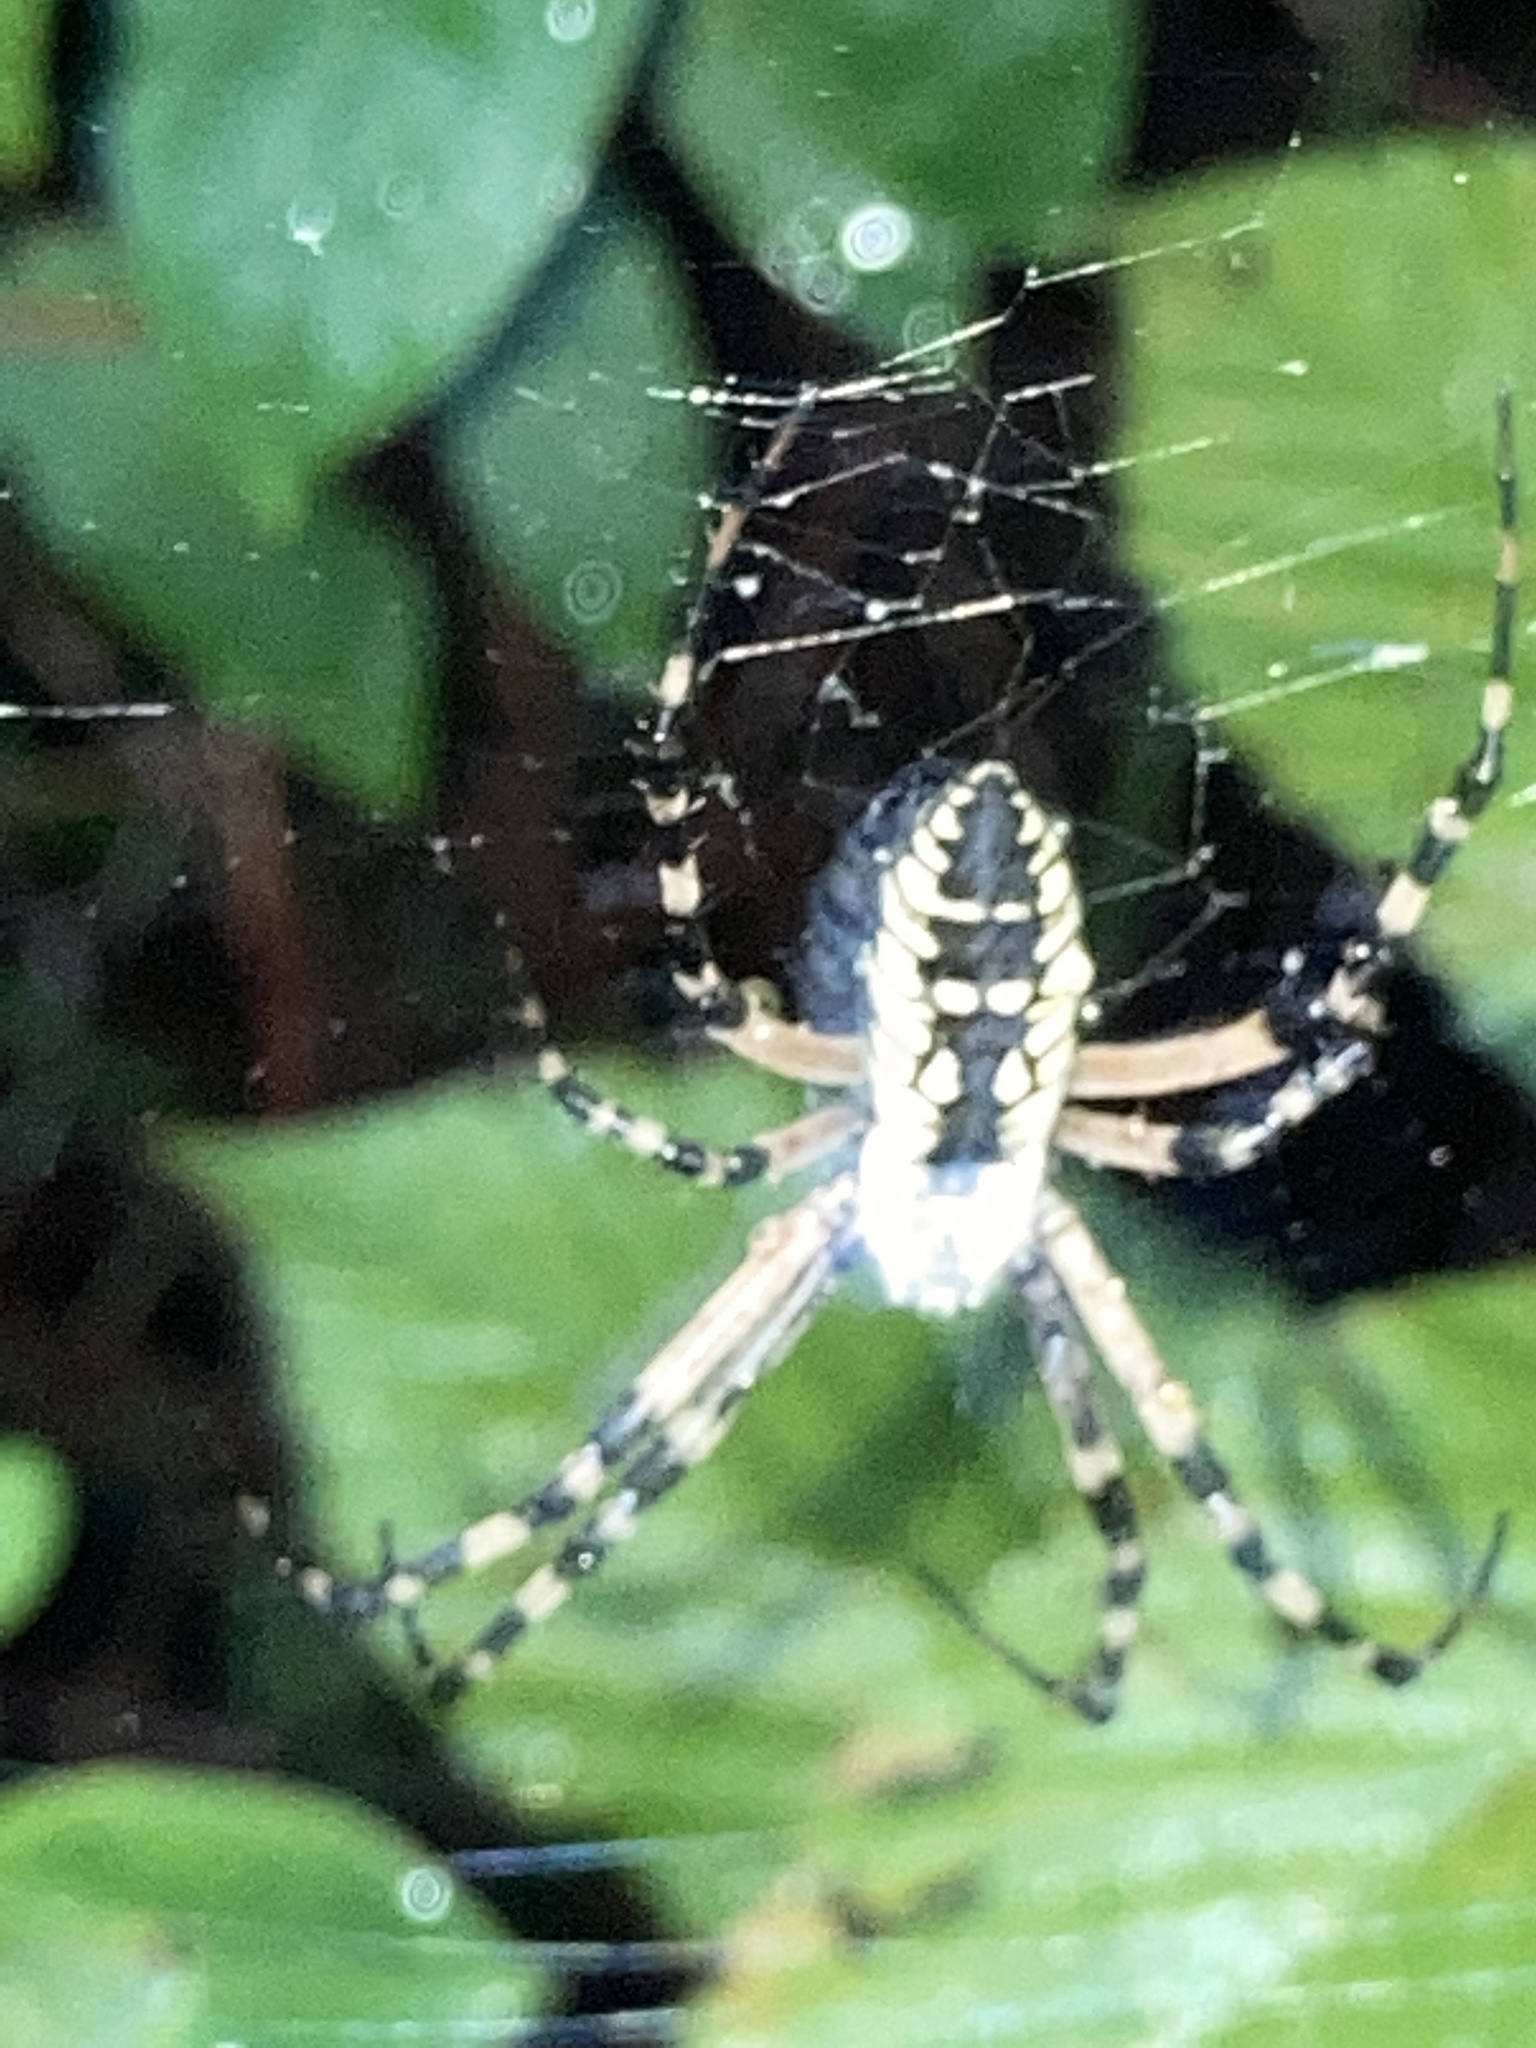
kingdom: Animalia
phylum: Arthropoda
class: Arachnida
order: Araneae
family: Araneidae
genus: Argiope
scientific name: Argiope aurantia
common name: Orb weavers
